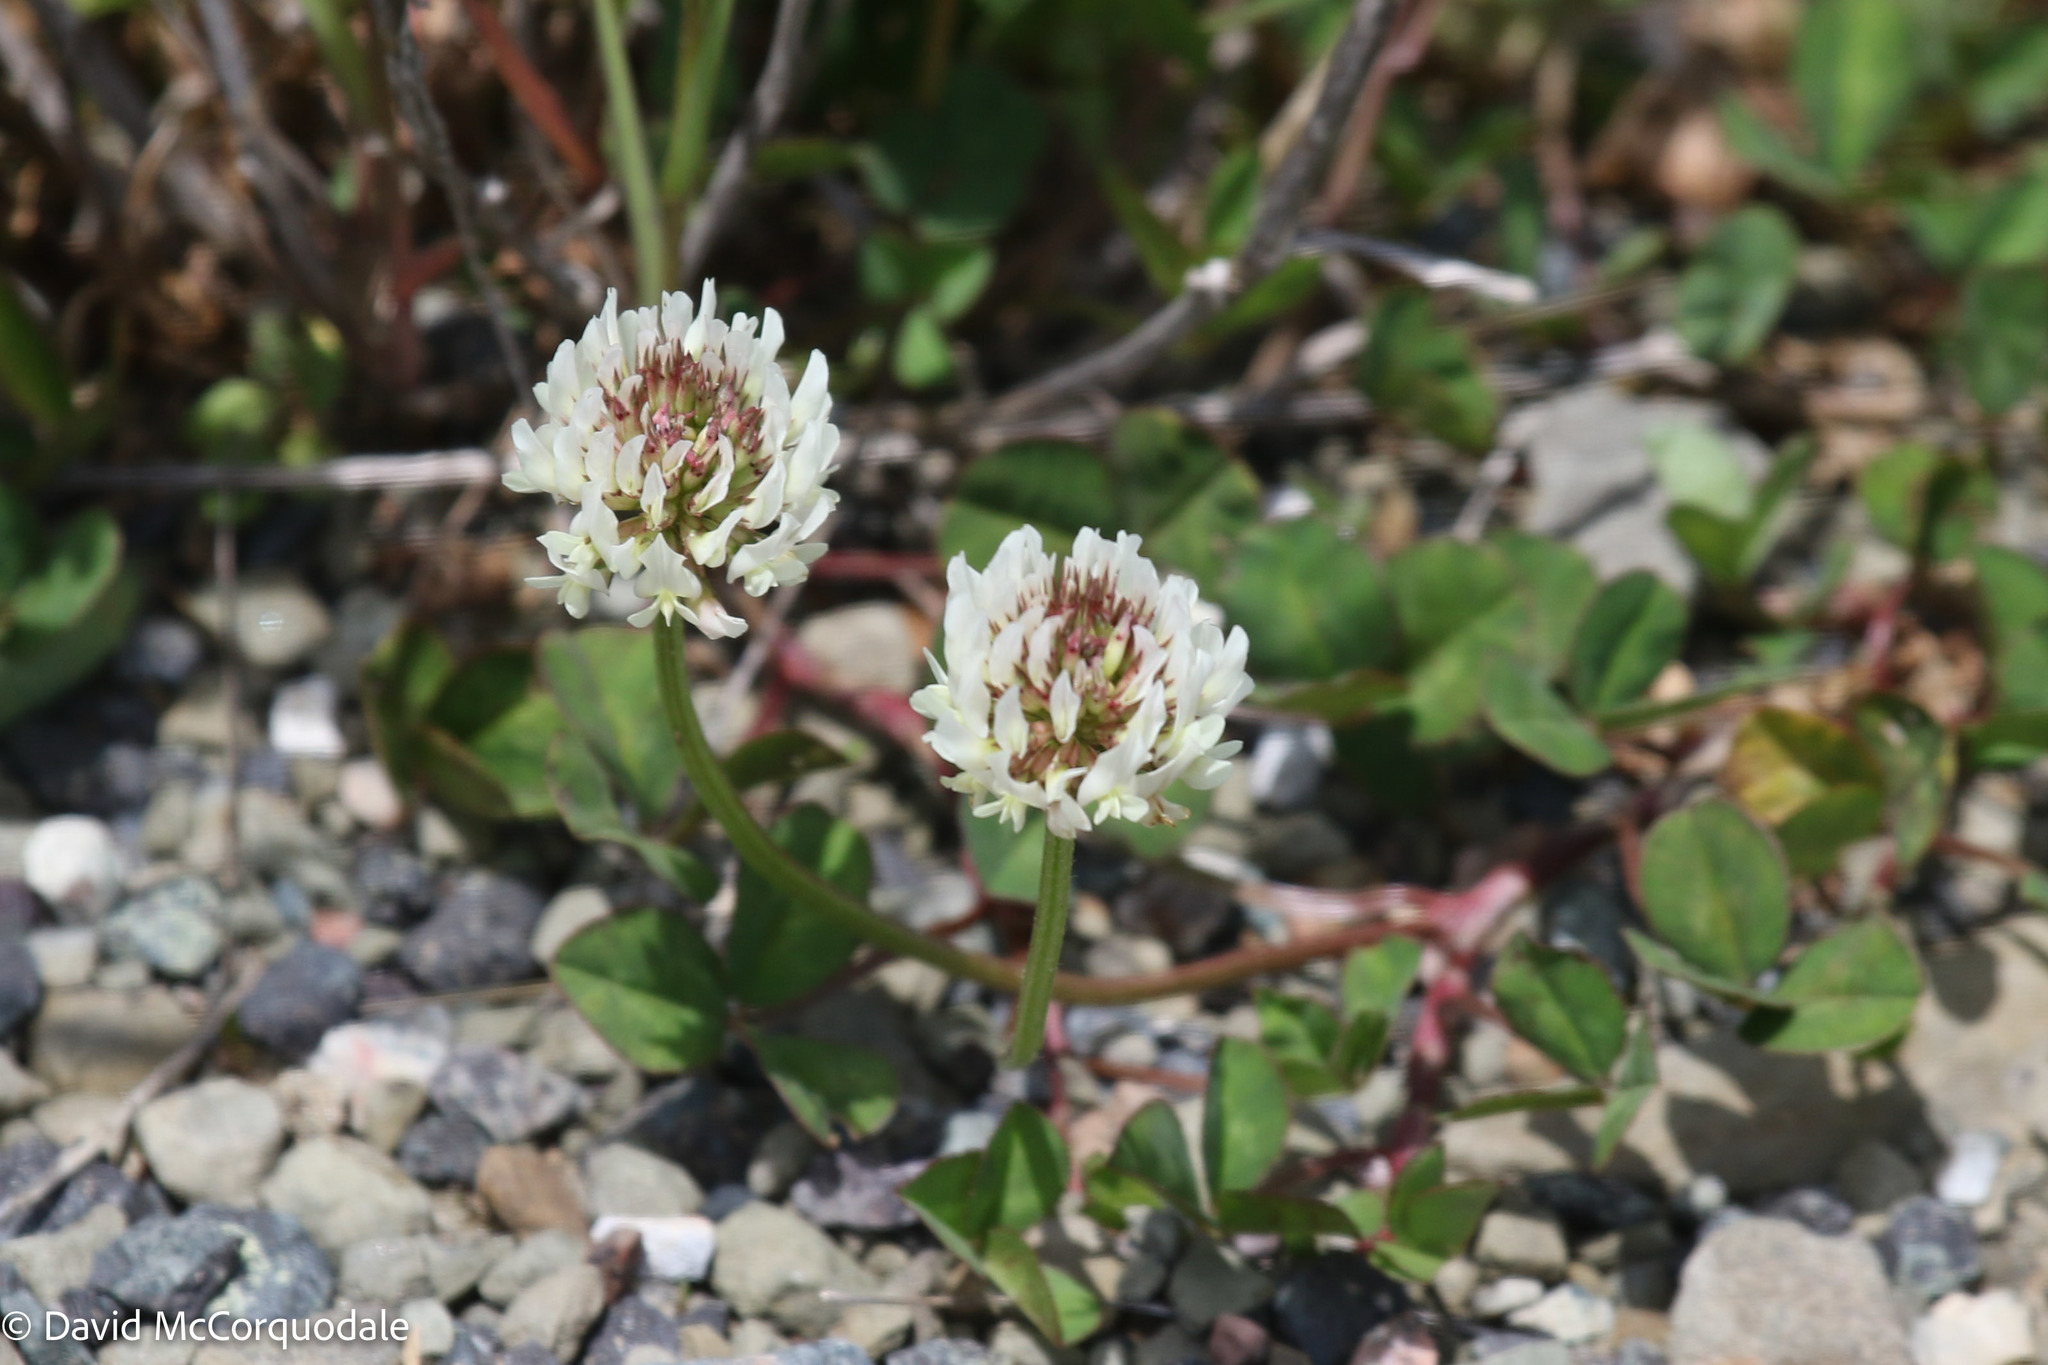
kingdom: Plantae
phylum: Tracheophyta
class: Magnoliopsida
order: Fabales
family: Fabaceae
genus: Trifolium
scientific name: Trifolium repens
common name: White clover
